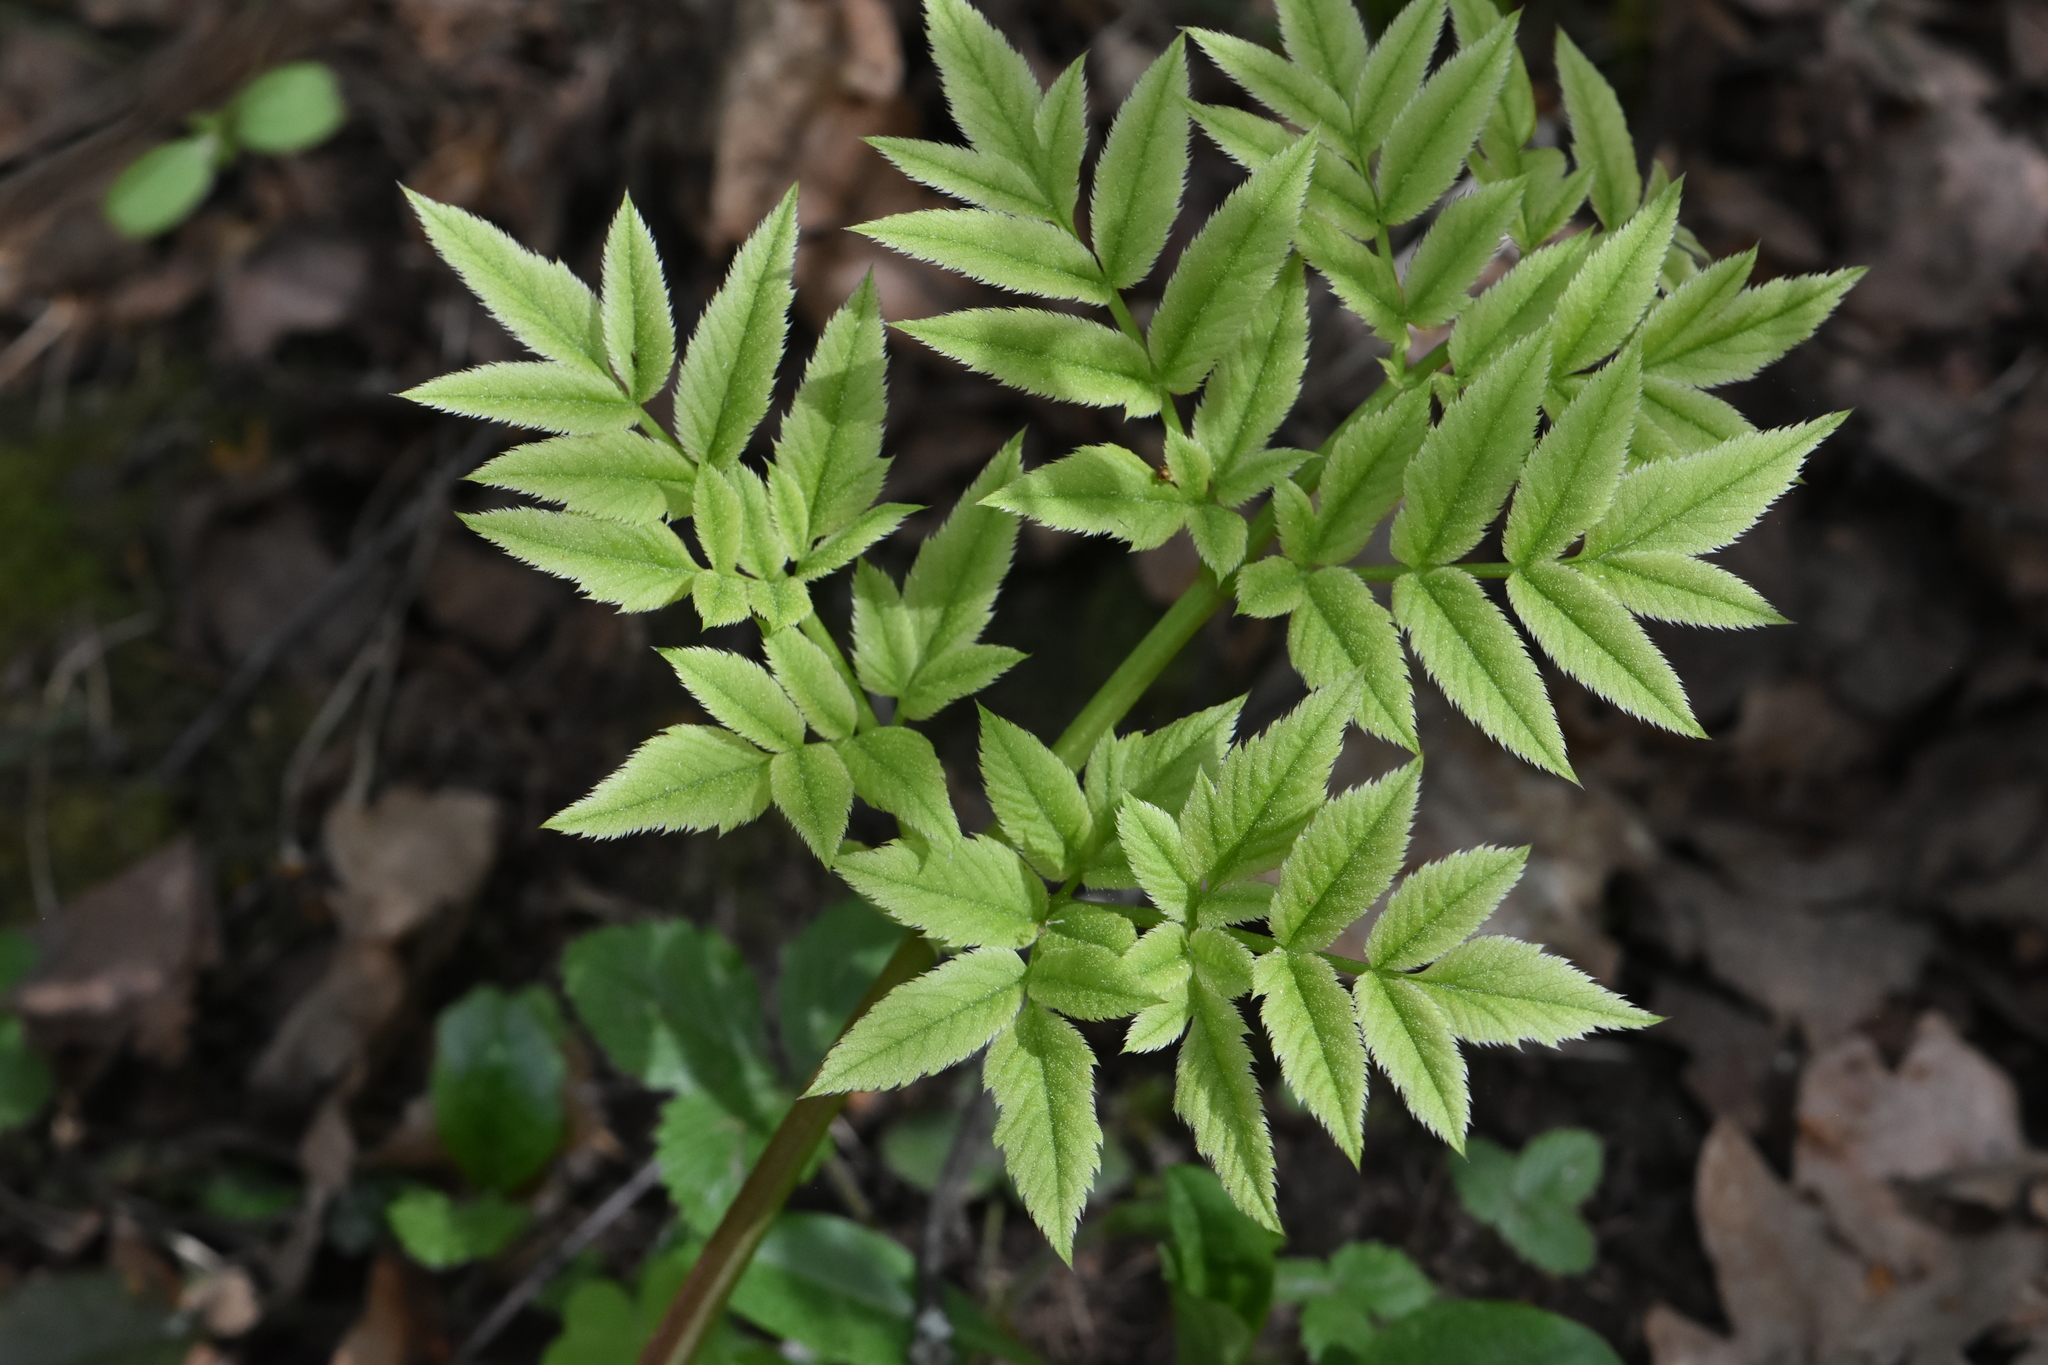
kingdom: Plantae
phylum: Tracheophyta
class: Magnoliopsida
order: Apiales
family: Apiaceae
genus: Angelica
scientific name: Angelica sylvestris
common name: Wild angelica
